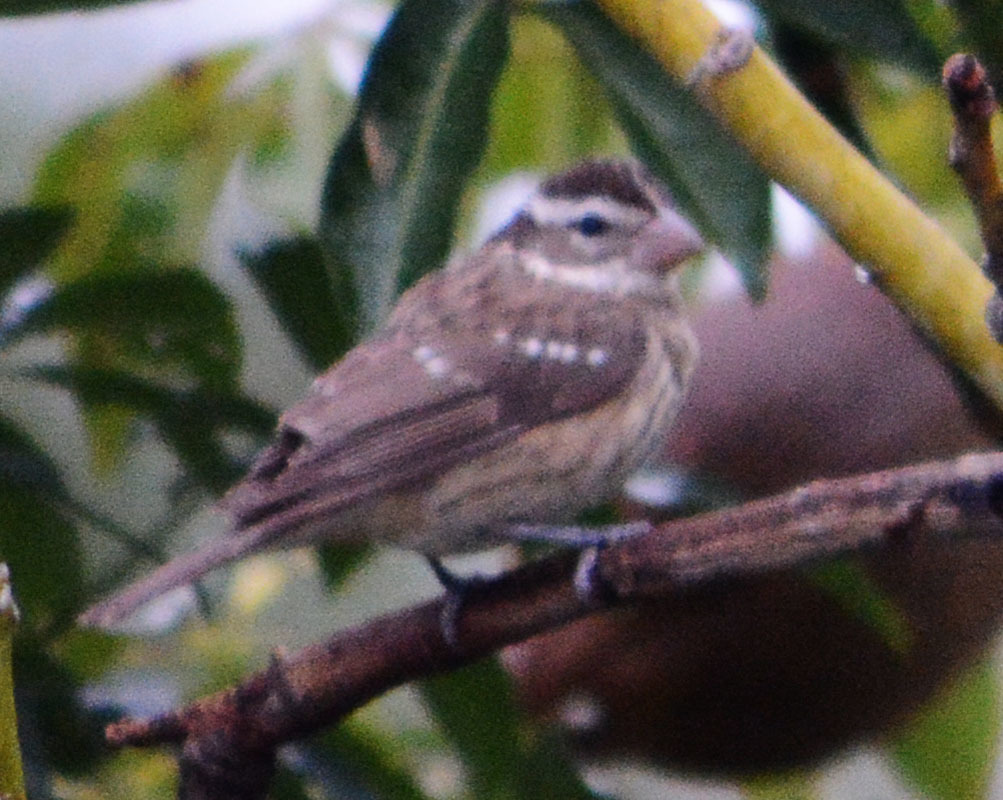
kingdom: Animalia
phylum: Chordata
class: Aves
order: Passeriformes
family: Cardinalidae
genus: Pheucticus
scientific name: Pheucticus ludovicianus
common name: Rose-breasted grosbeak
